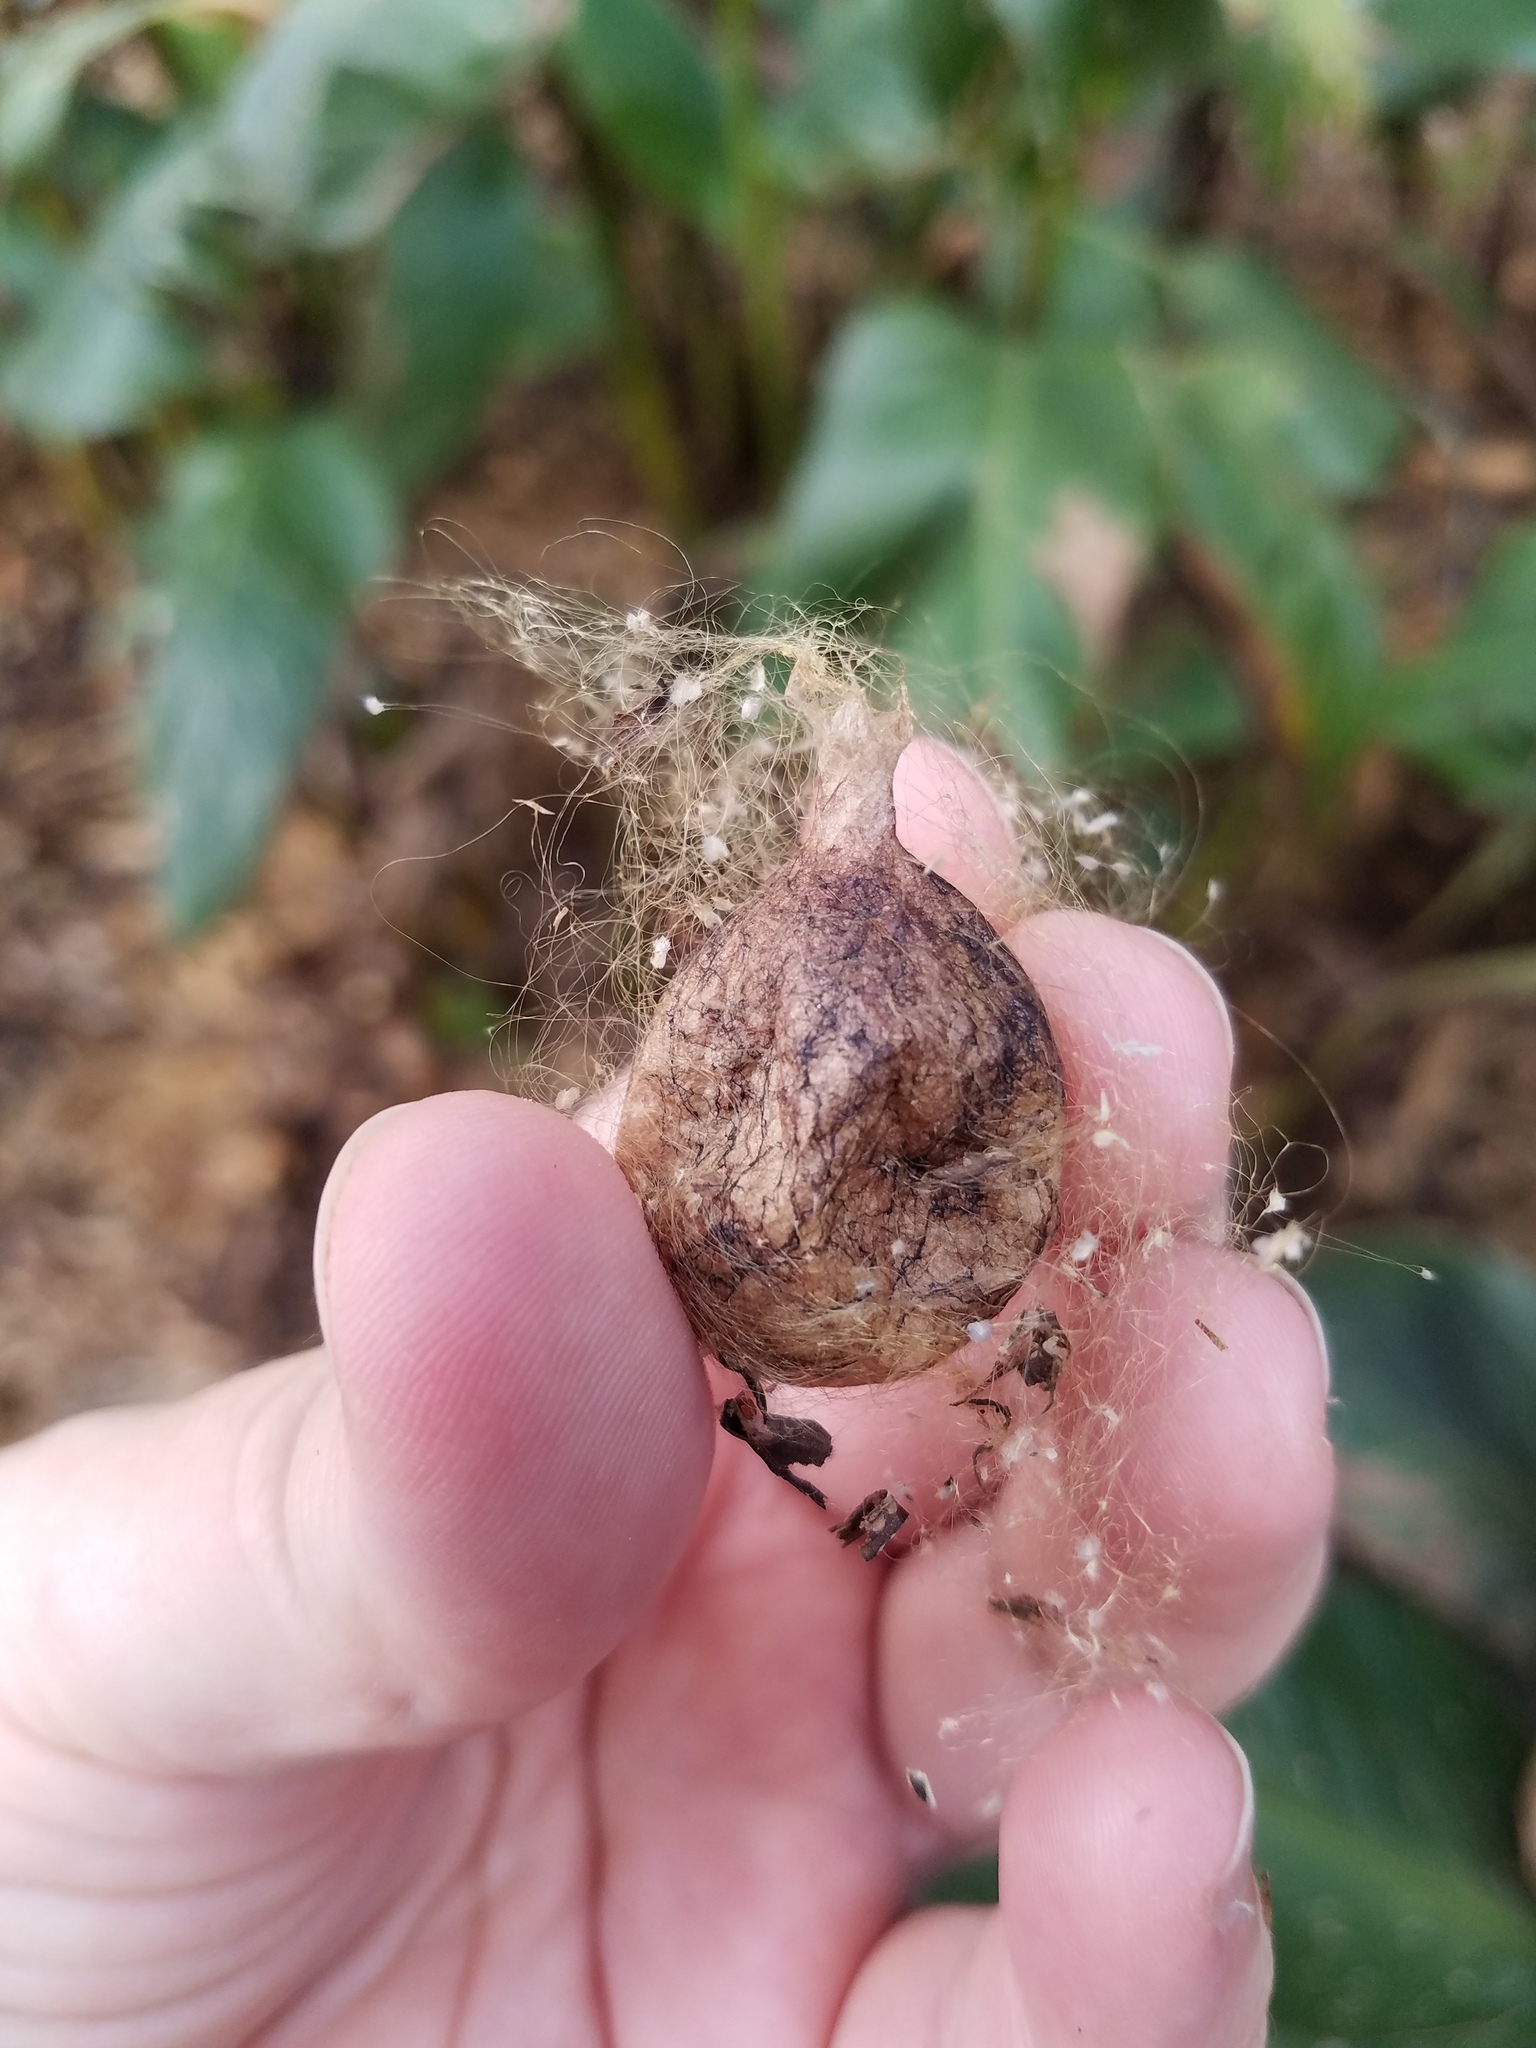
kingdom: Animalia
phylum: Arthropoda
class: Arachnida
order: Araneae
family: Araneidae
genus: Argiope
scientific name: Argiope aurantia
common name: Orb weavers
